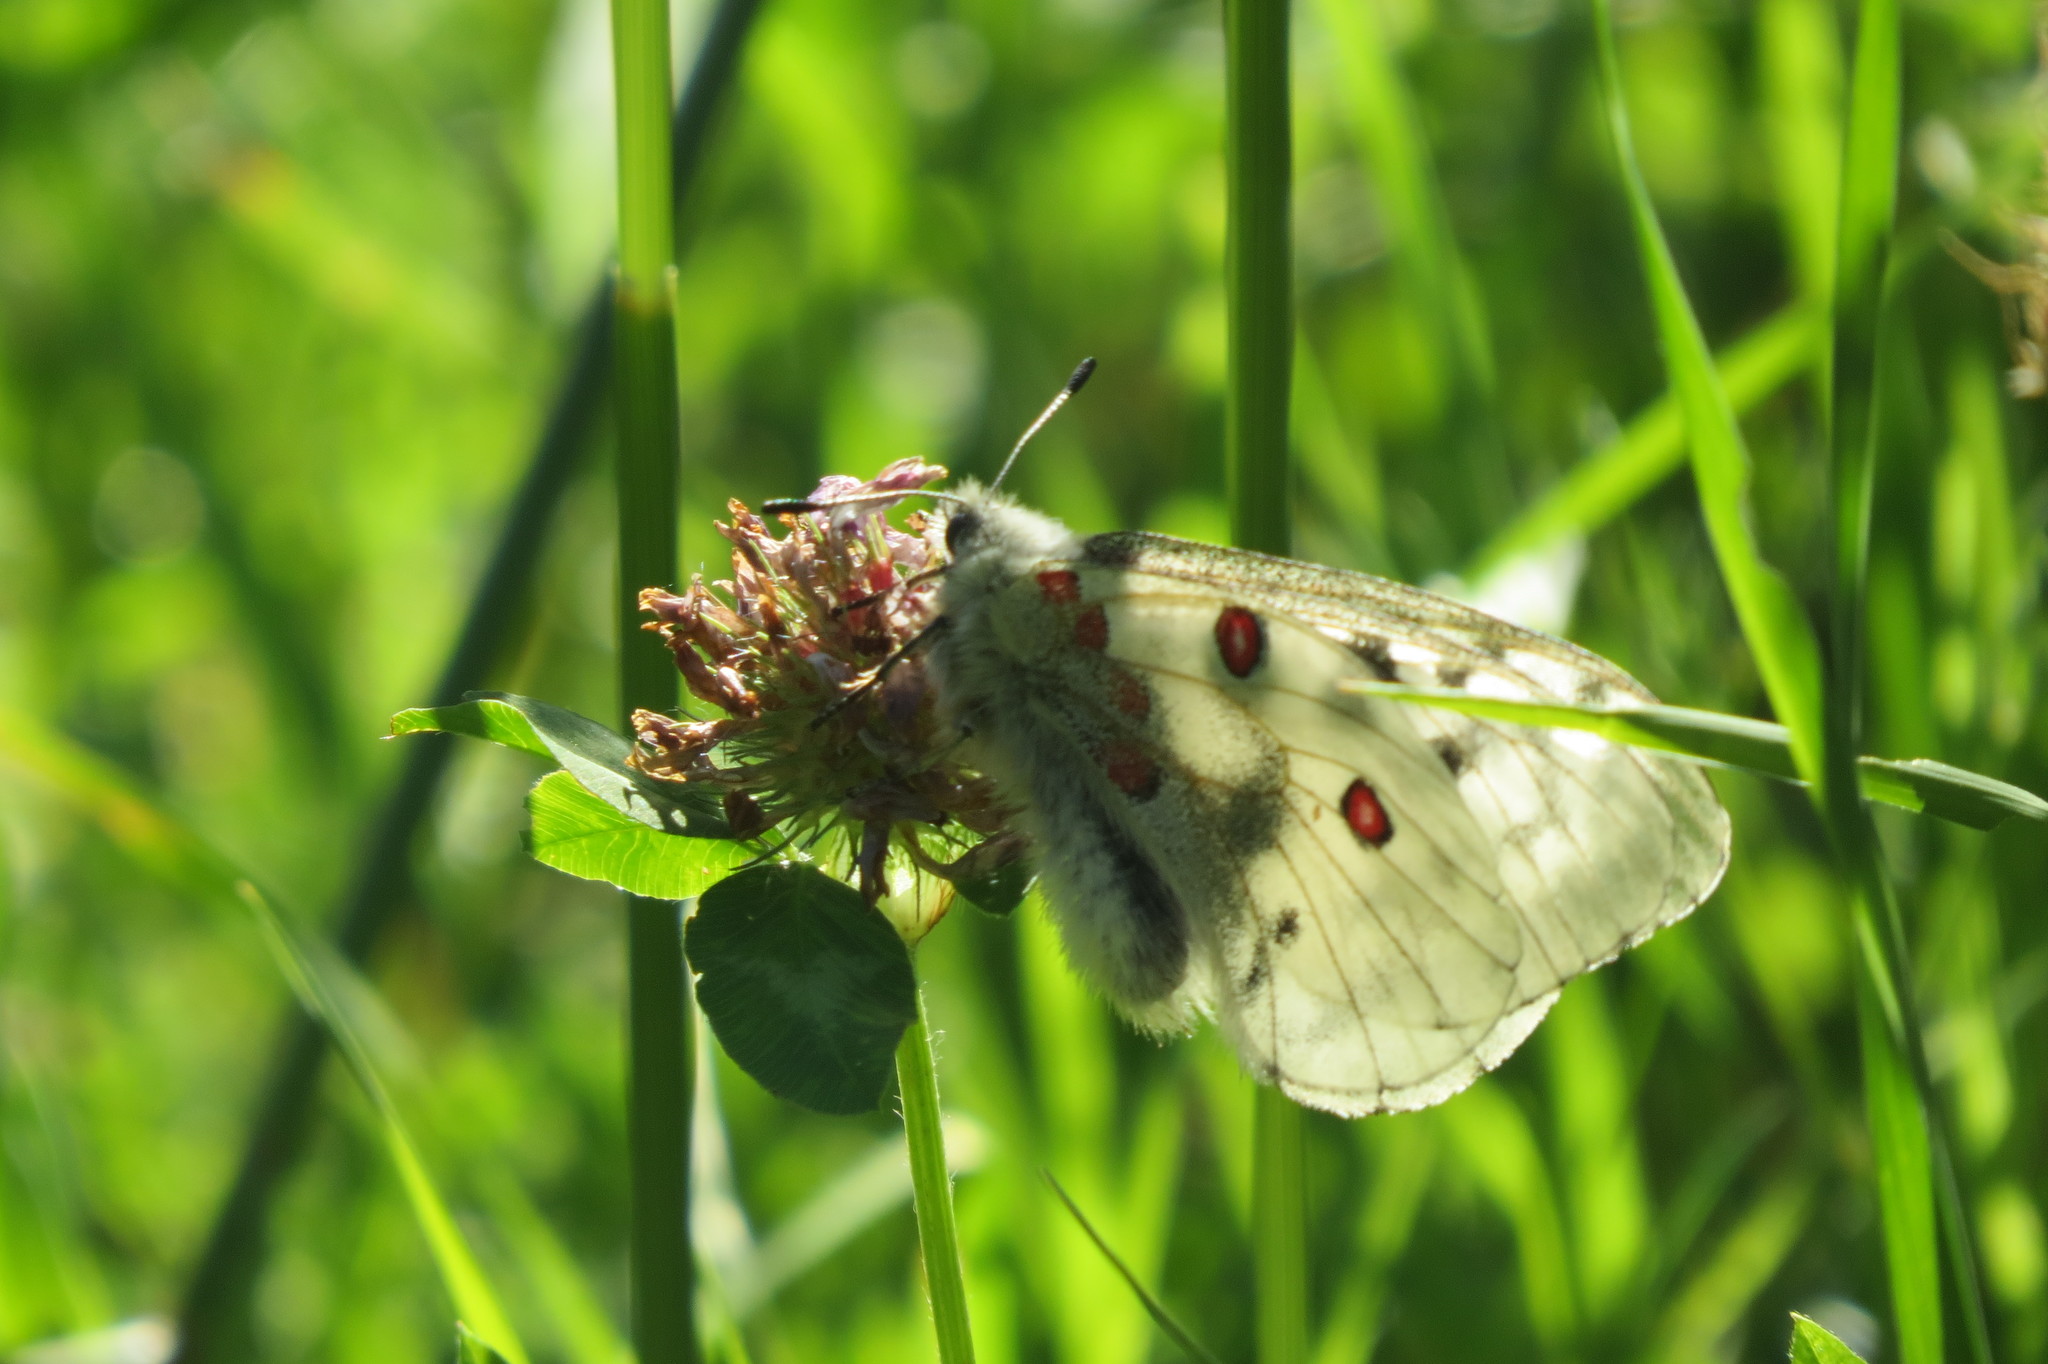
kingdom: Animalia
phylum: Arthropoda
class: Insecta
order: Lepidoptera
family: Papilionidae
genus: Parnassius
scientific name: Parnassius apollo
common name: Apollo
